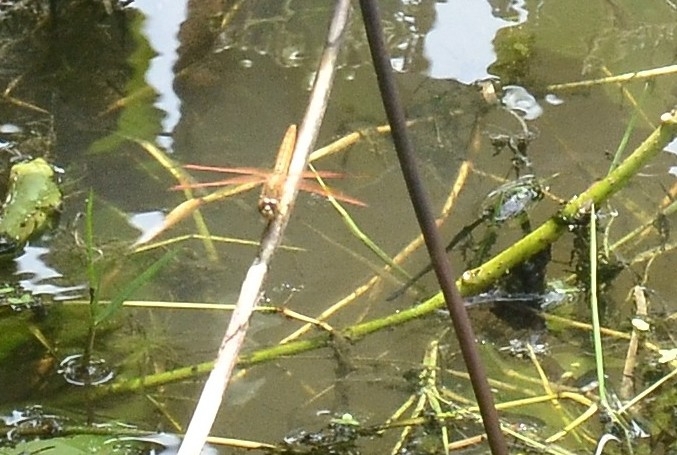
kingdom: Animalia
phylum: Arthropoda
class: Insecta
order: Odonata
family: Libellulidae
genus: Brachythemis
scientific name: Brachythemis contaminata
